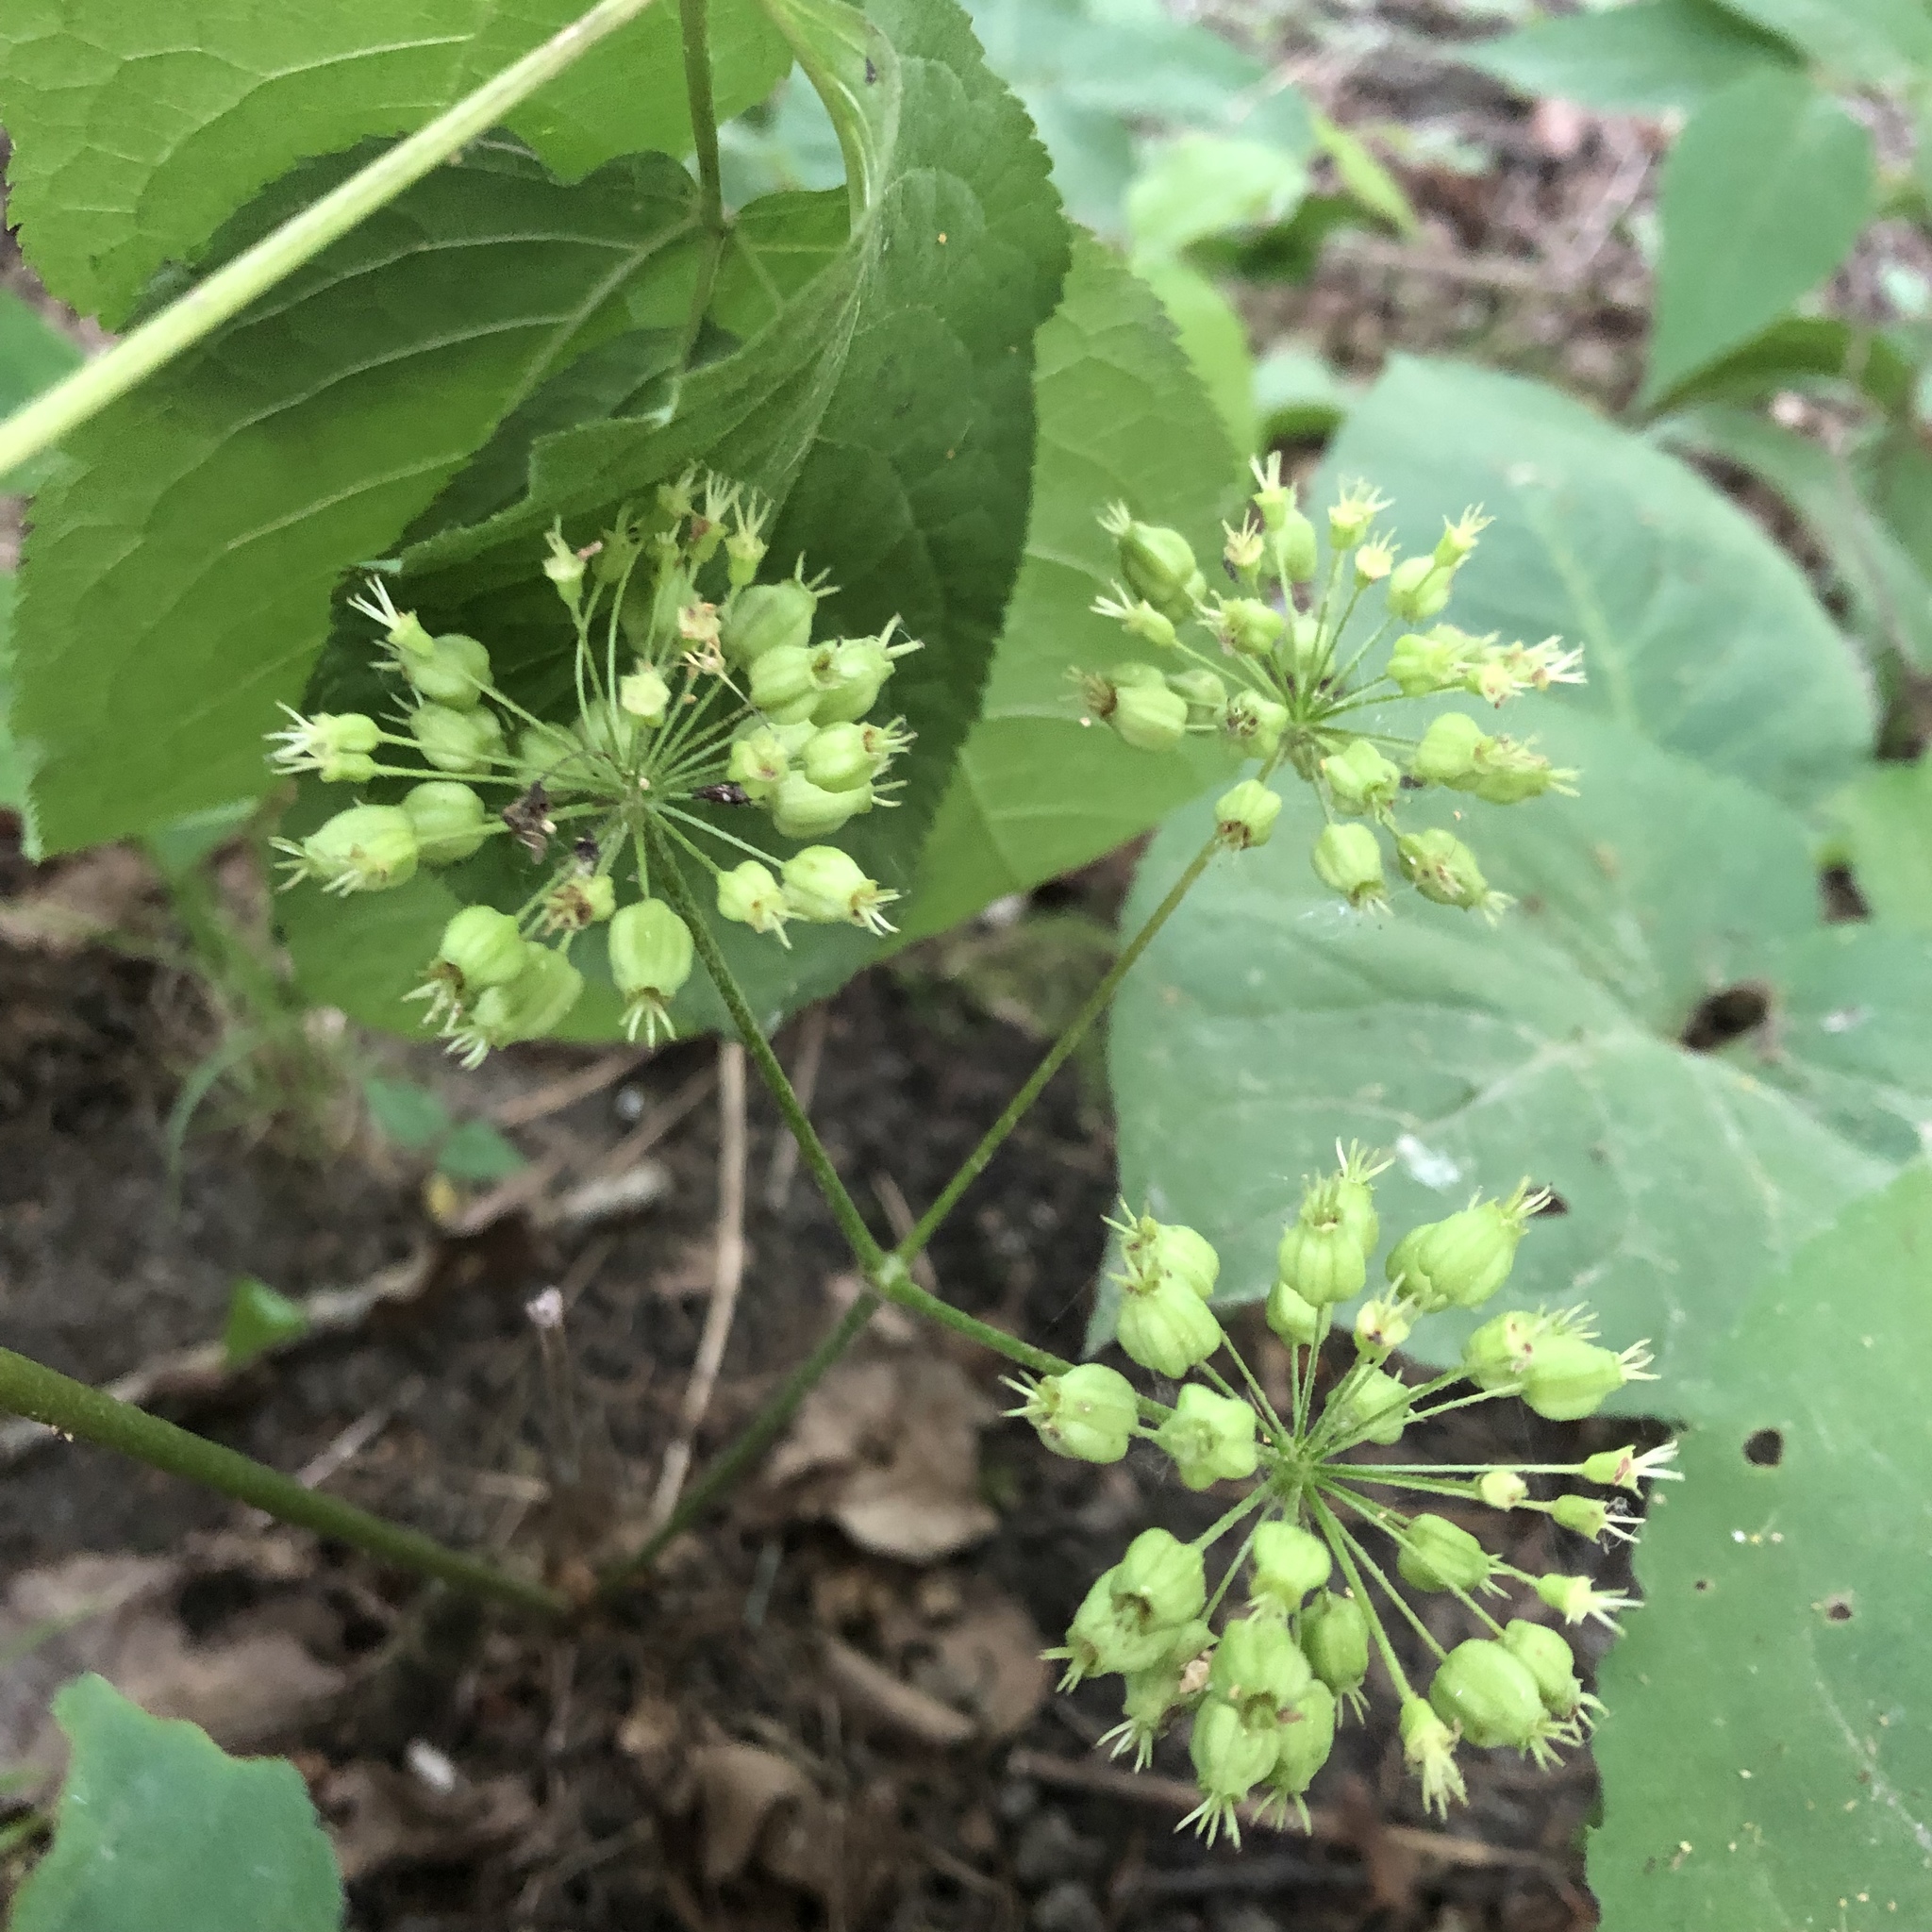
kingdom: Plantae
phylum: Tracheophyta
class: Magnoliopsida
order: Apiales
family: Araliaceae
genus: Aralia
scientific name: Aralia nudicaulis
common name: Wild sarsaparilla
